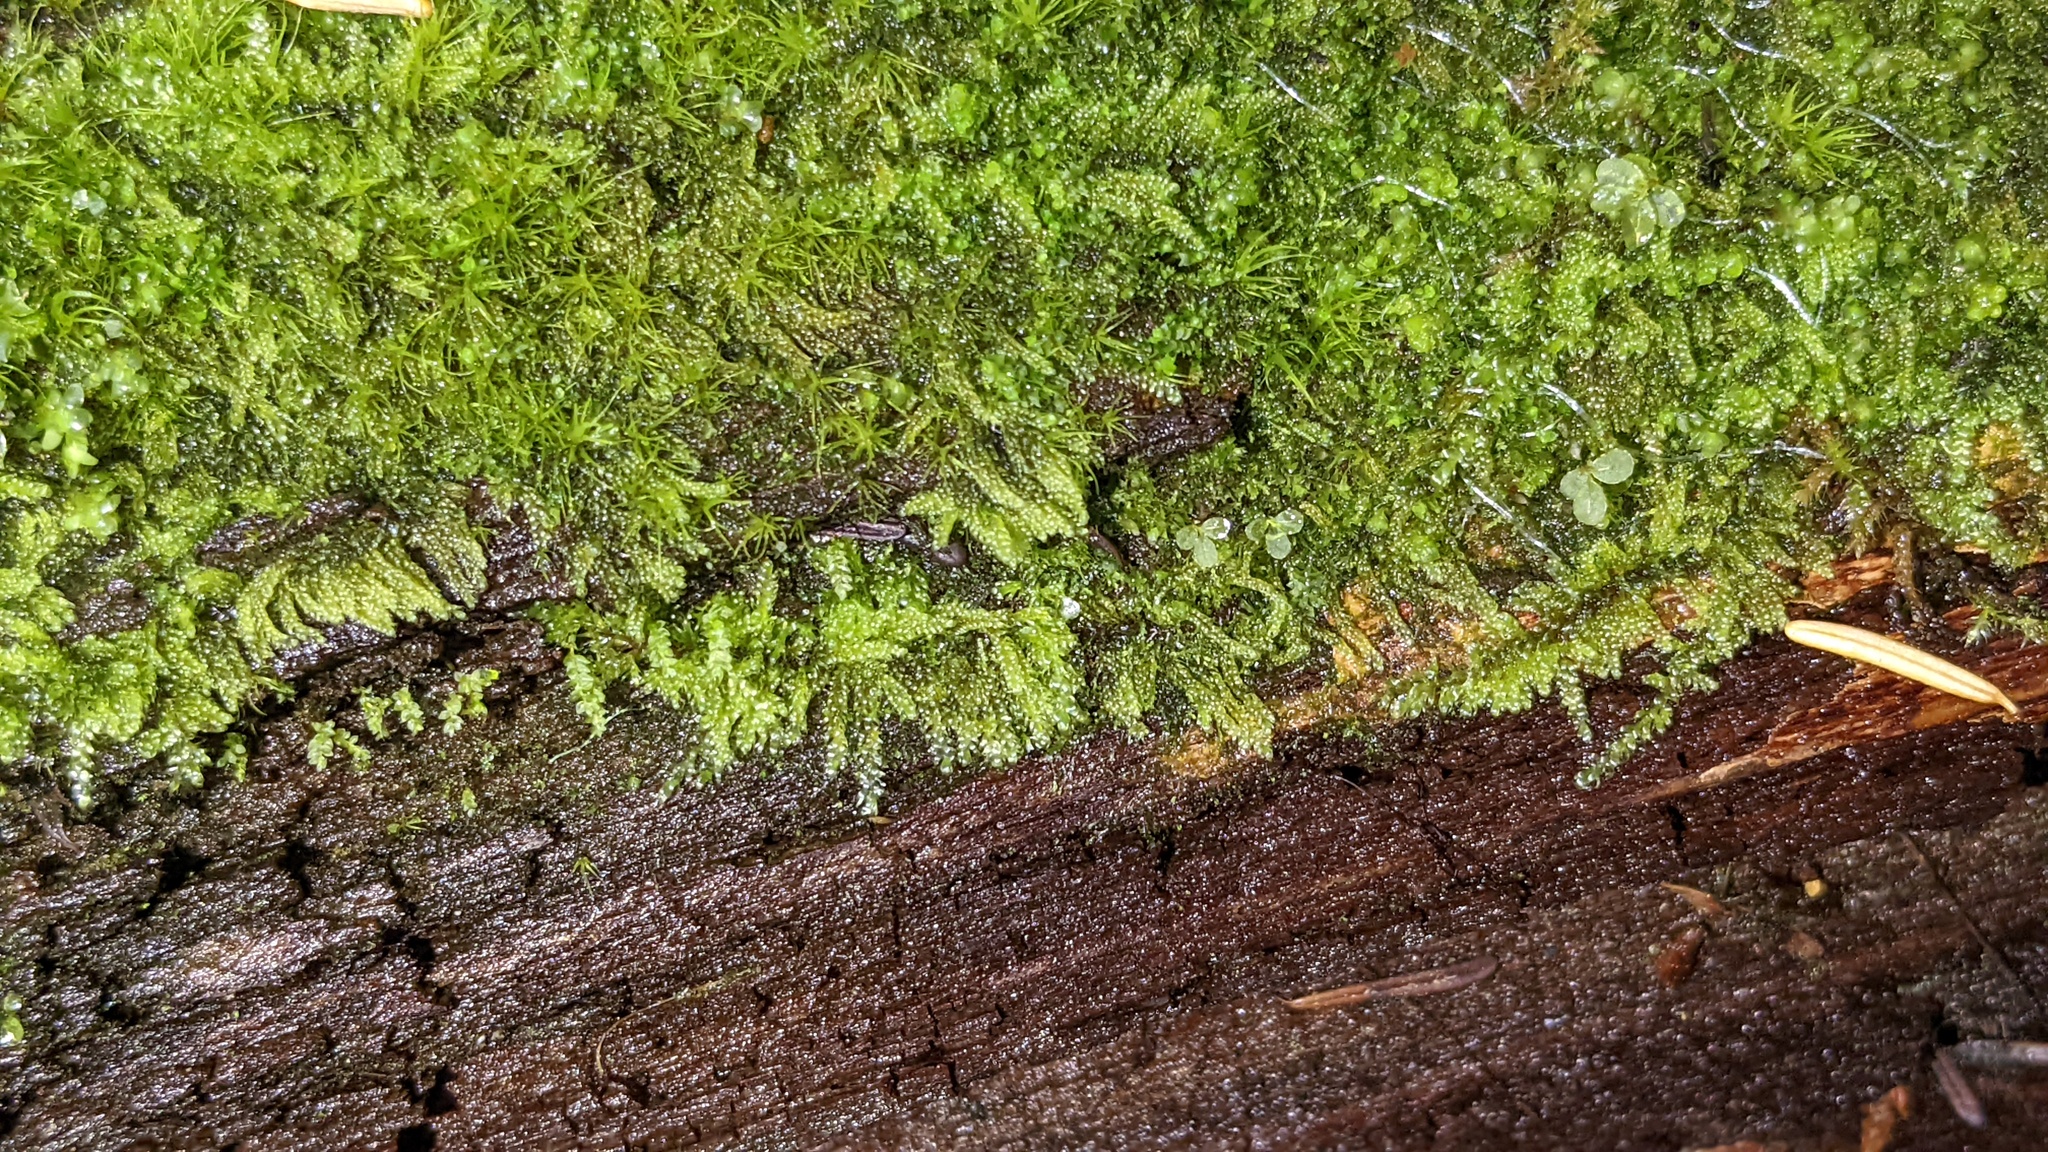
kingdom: Plantae
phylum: Bryophyta
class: Bryopsida
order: Hypnales
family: Pylaisiadelphaceae
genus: Trochophyllohypnum
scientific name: Trochophyllohypnum circinale
